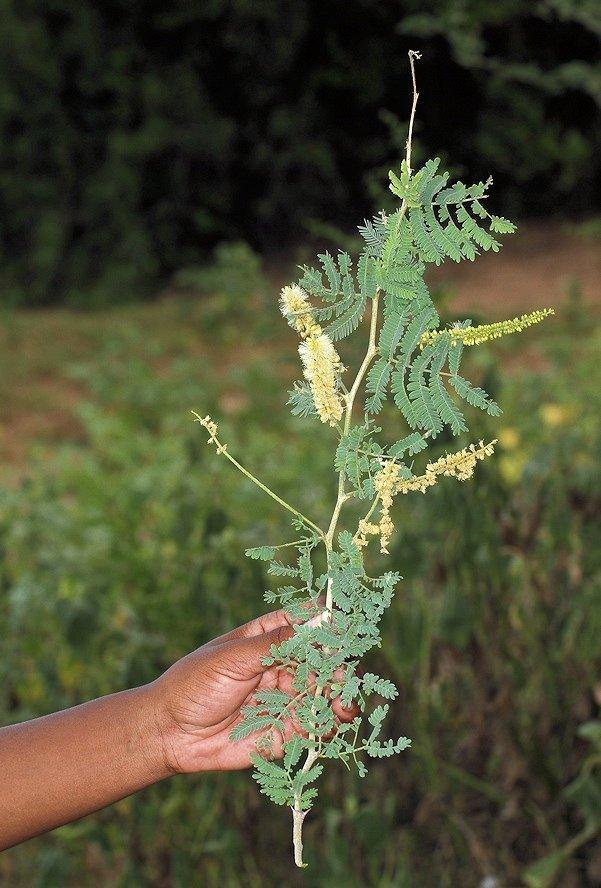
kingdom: Plantae
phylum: Tracheophyta
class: Magnoliopsida
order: Fabales
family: Fabaceae
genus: Faidherbia
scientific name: Faidherbia albida
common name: Anatree
